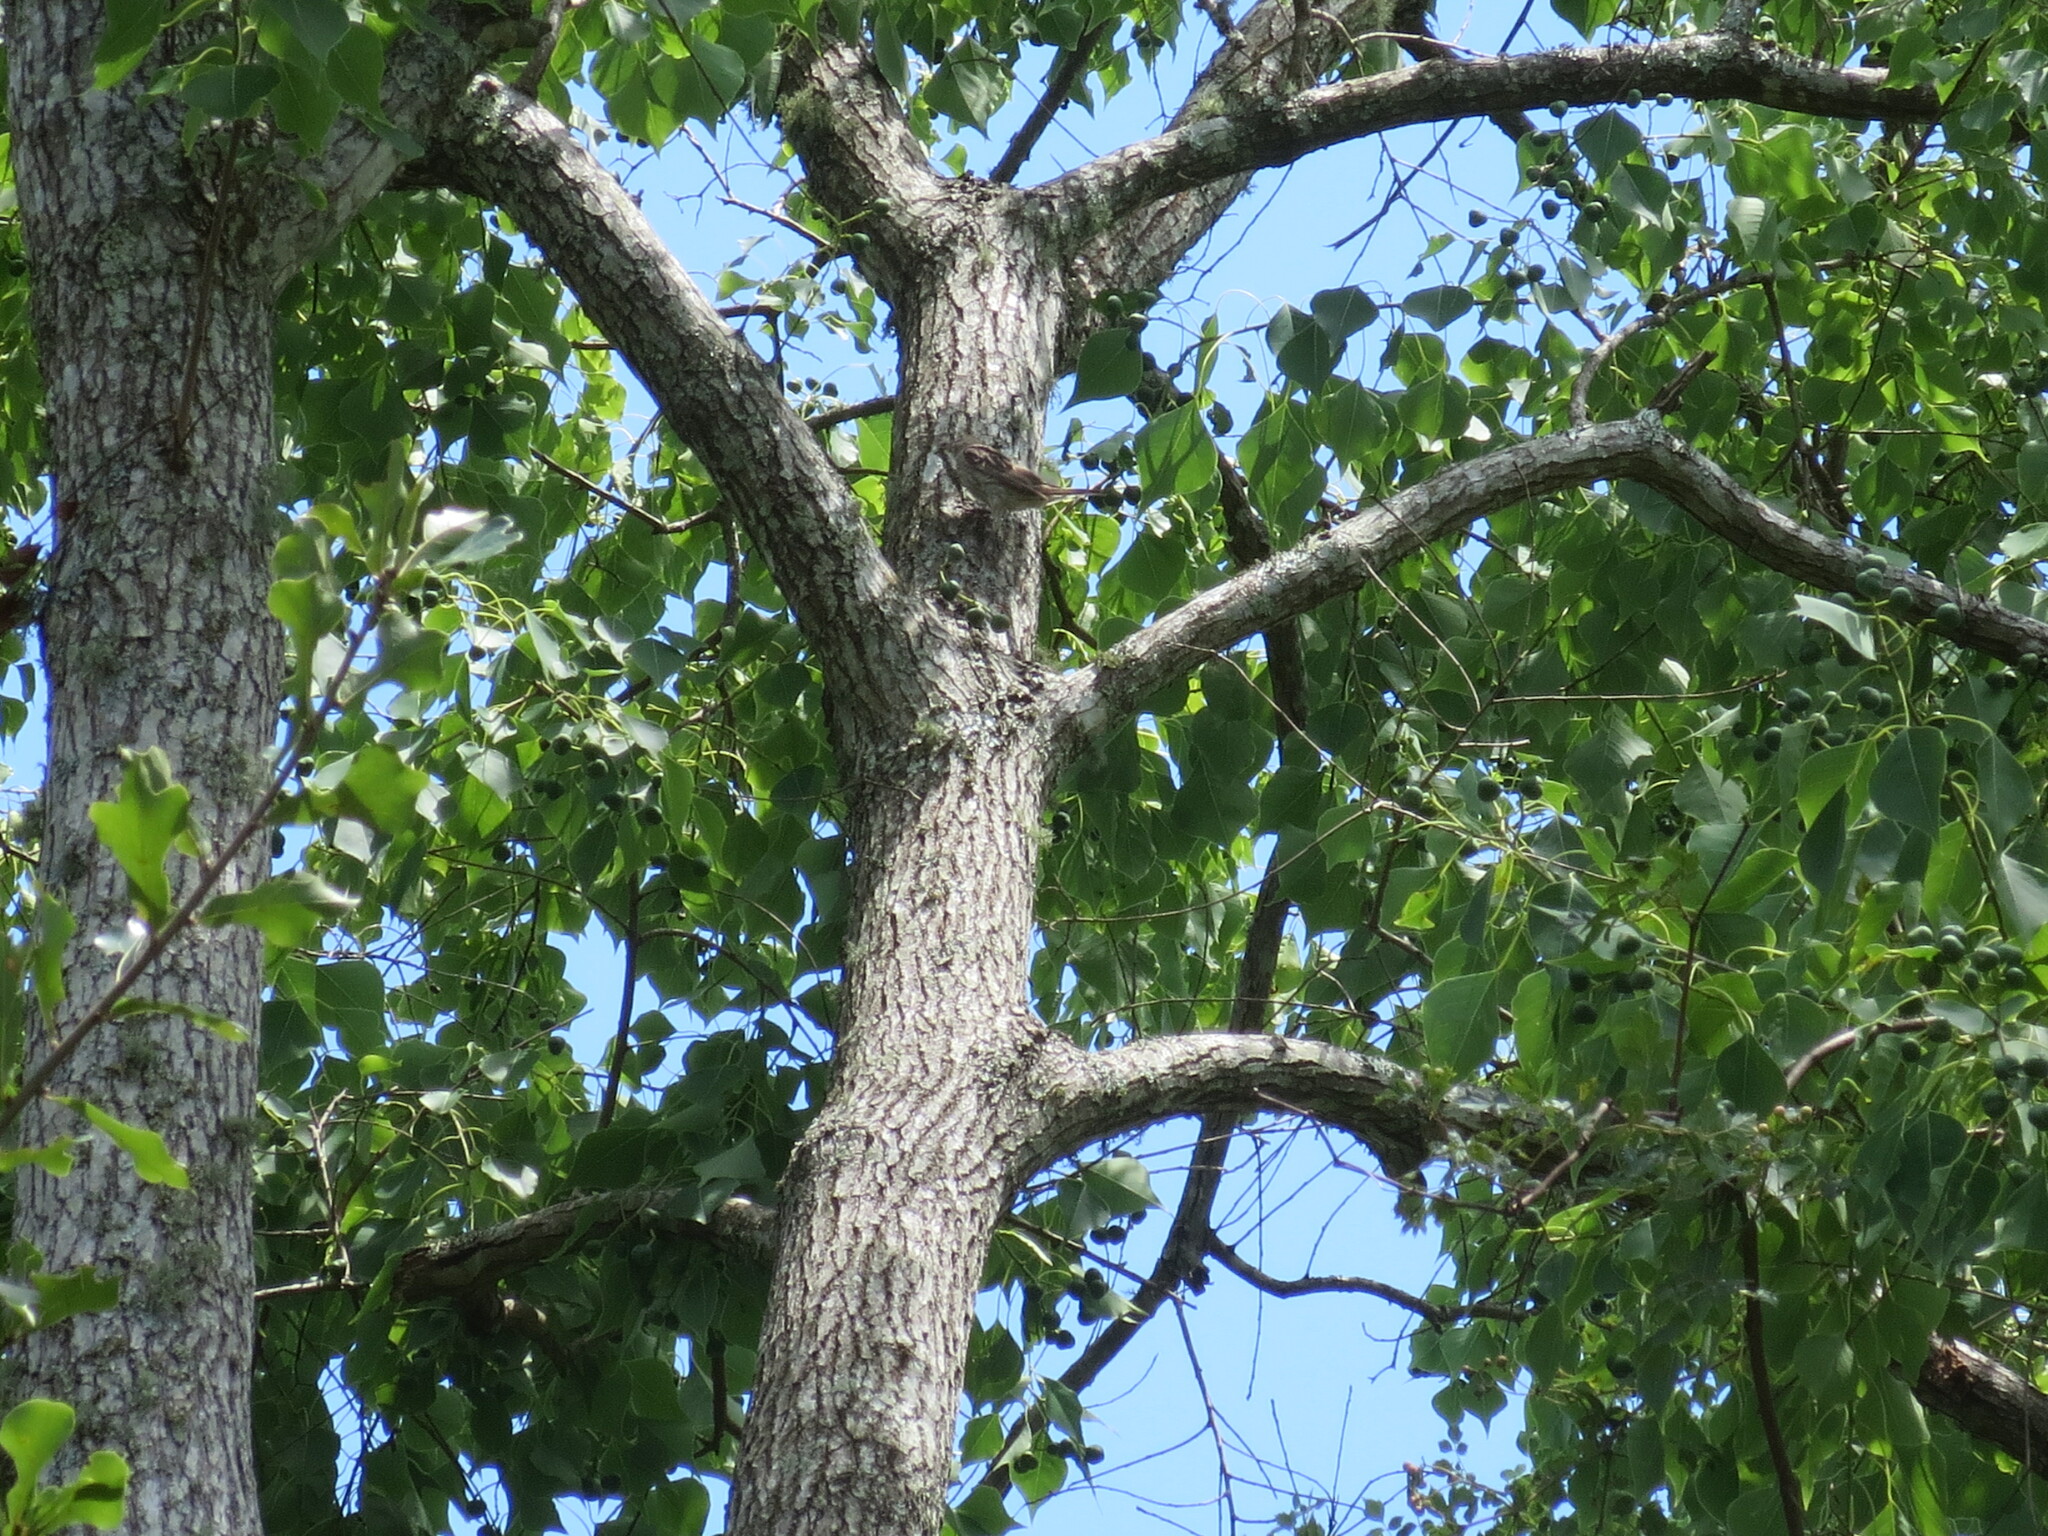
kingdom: Plantae
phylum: Tracheophyta
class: Magnoliopsida
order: Malpighiales
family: Euphorbiaceae
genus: Triadica
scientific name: Triadica sebifera
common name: Chinese tallow
